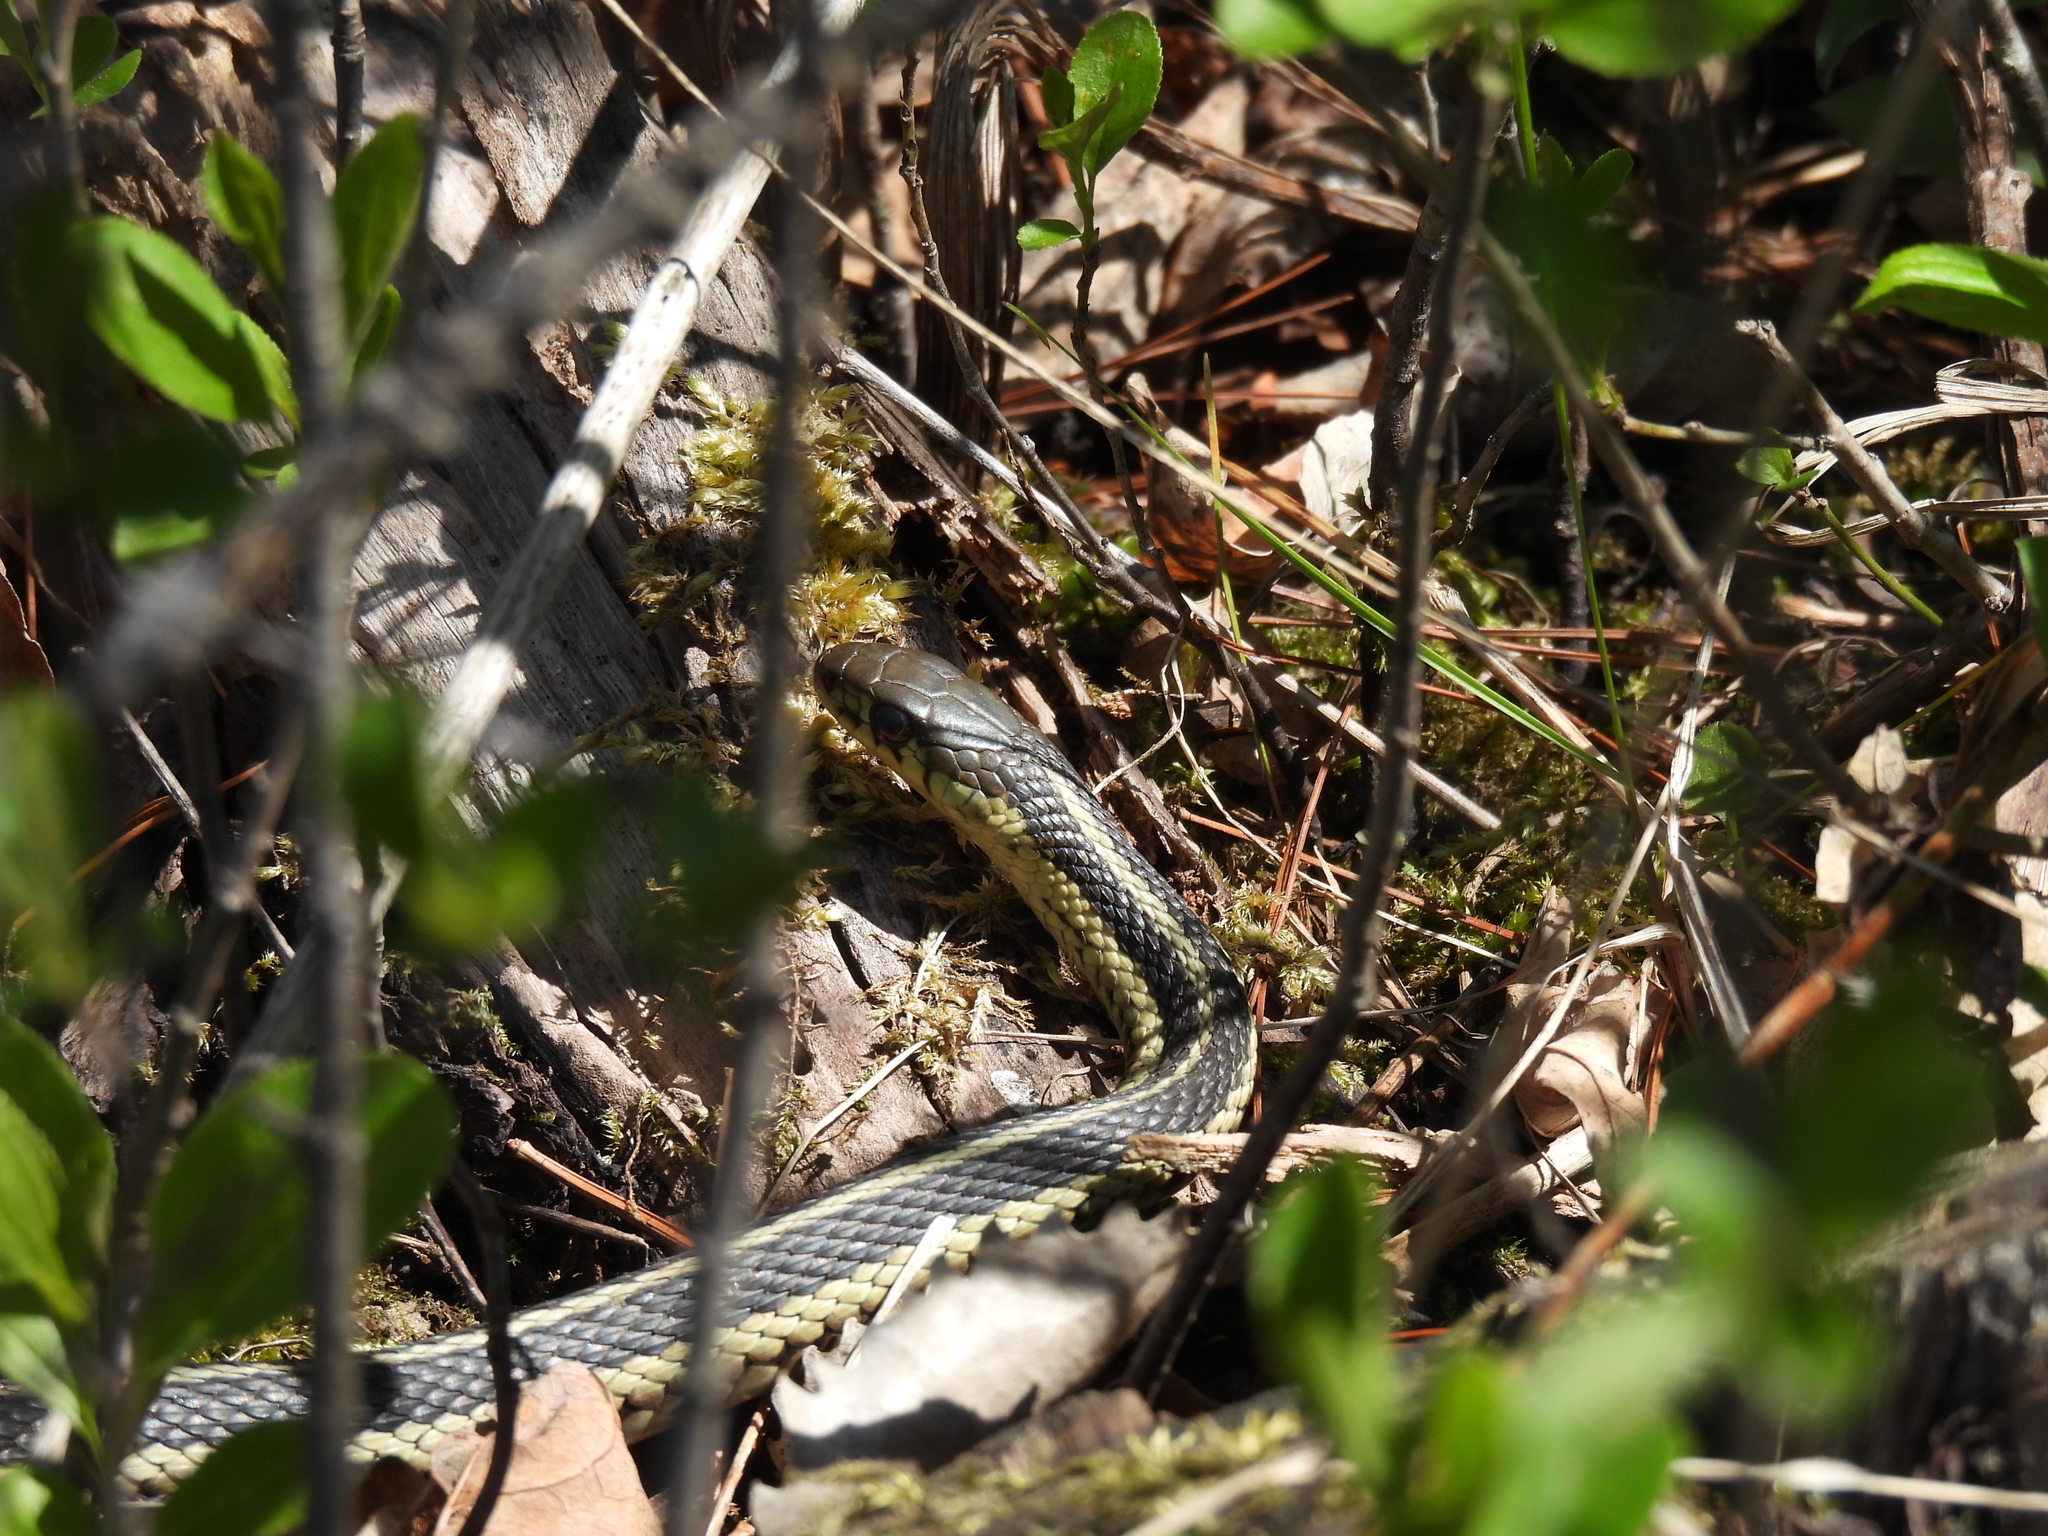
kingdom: Animalia
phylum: Chordata
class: Squamata
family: Colubridae
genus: Thamnophis
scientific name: Thamnophis sirtalis
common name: Common garter snake
